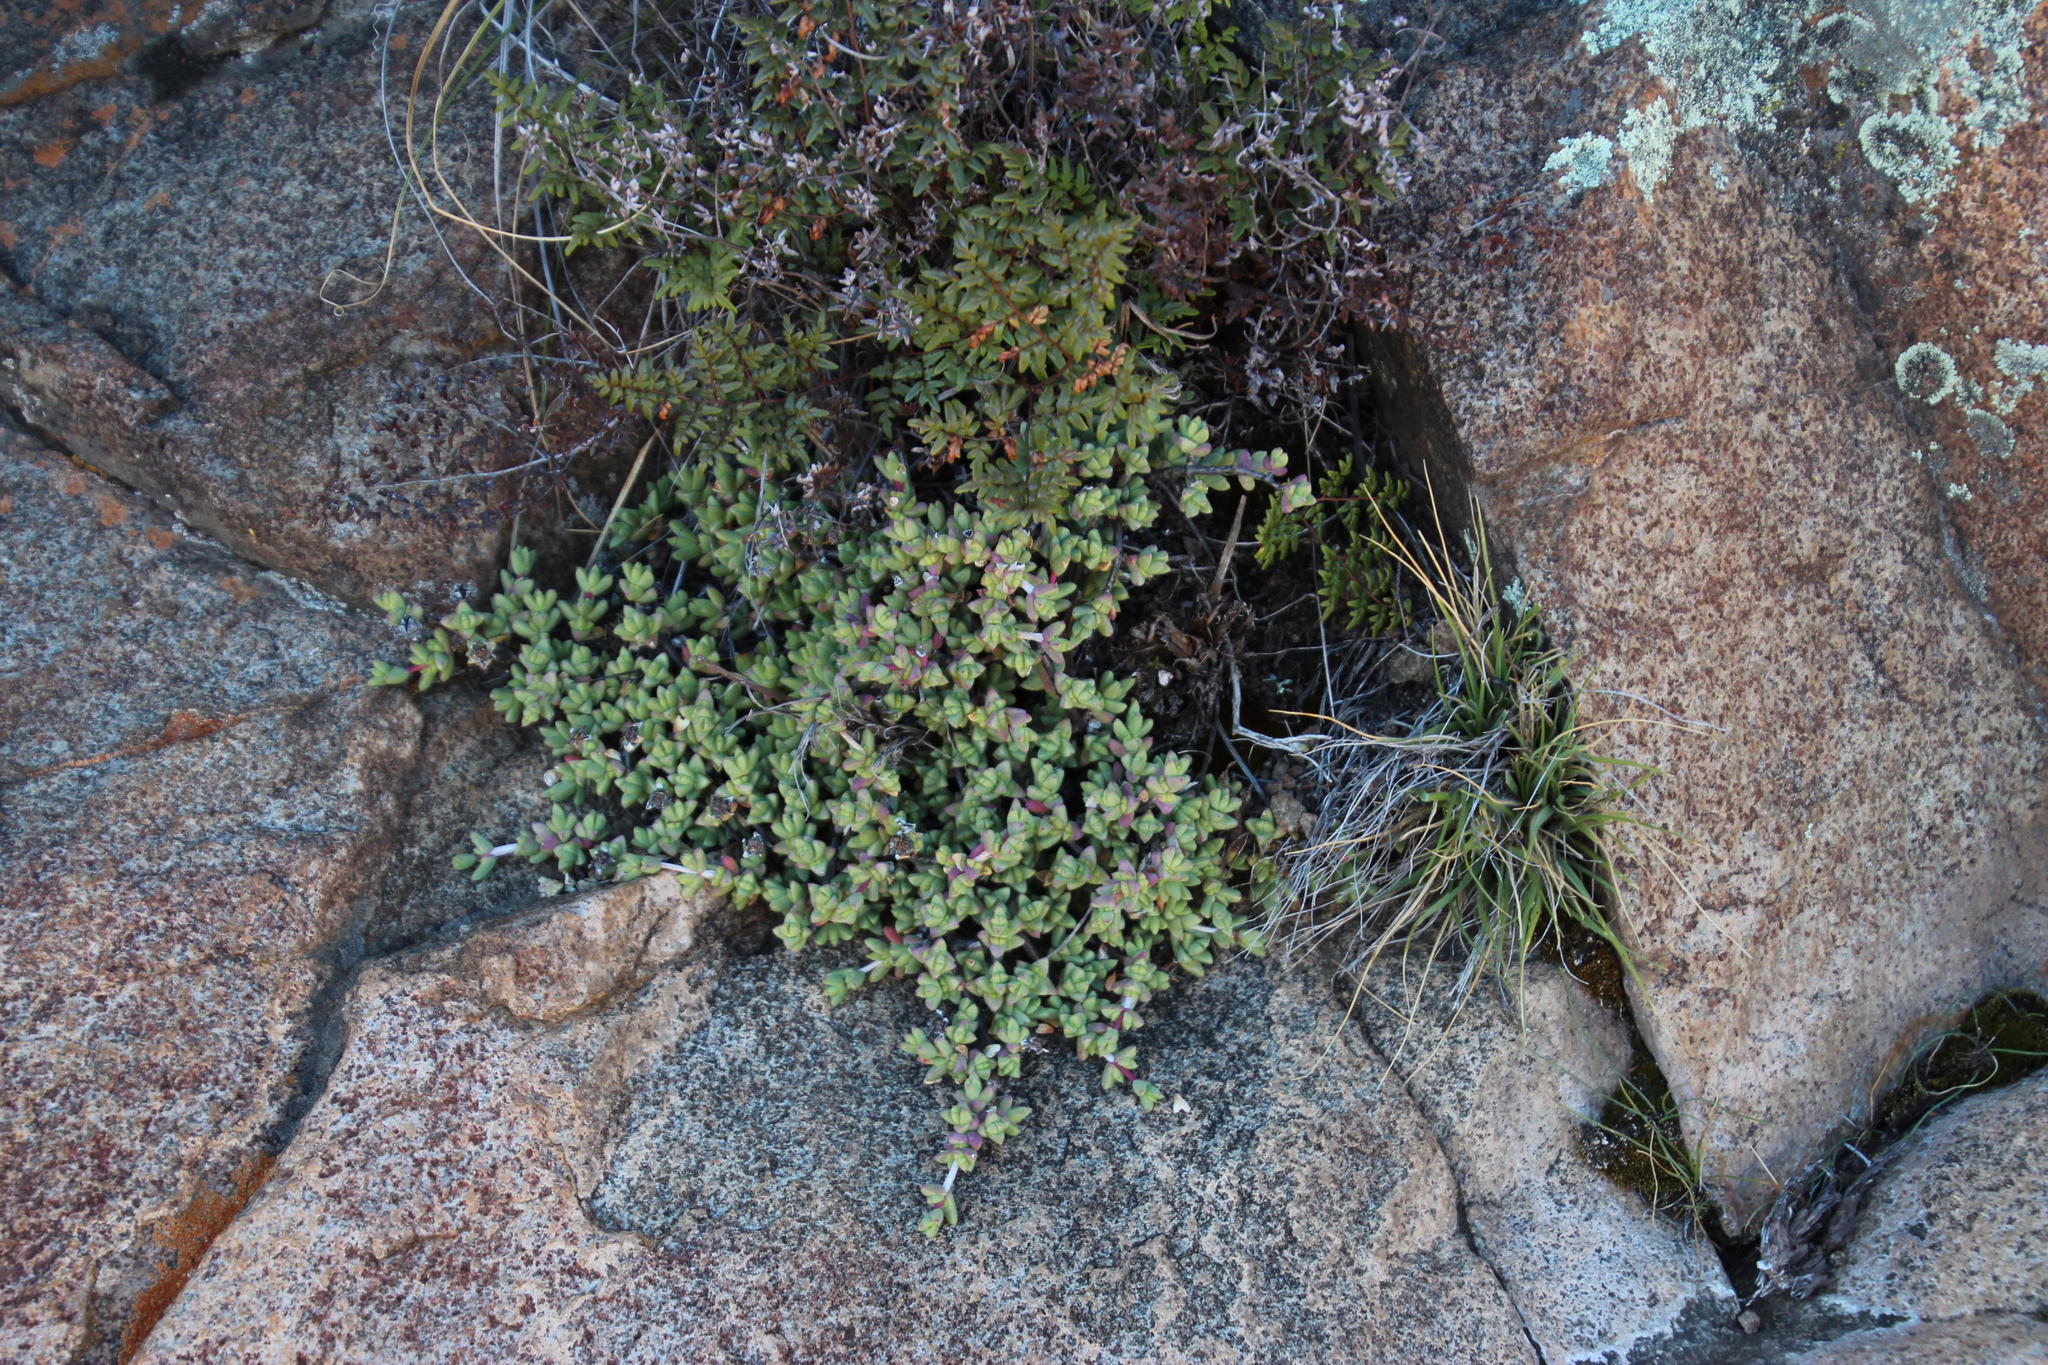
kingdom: Plantae
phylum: Tracheophyta
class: Magnoliopsida
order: Caryophyllales
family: Aizoaceae
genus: Ruschia
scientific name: Ruschia putterillii
